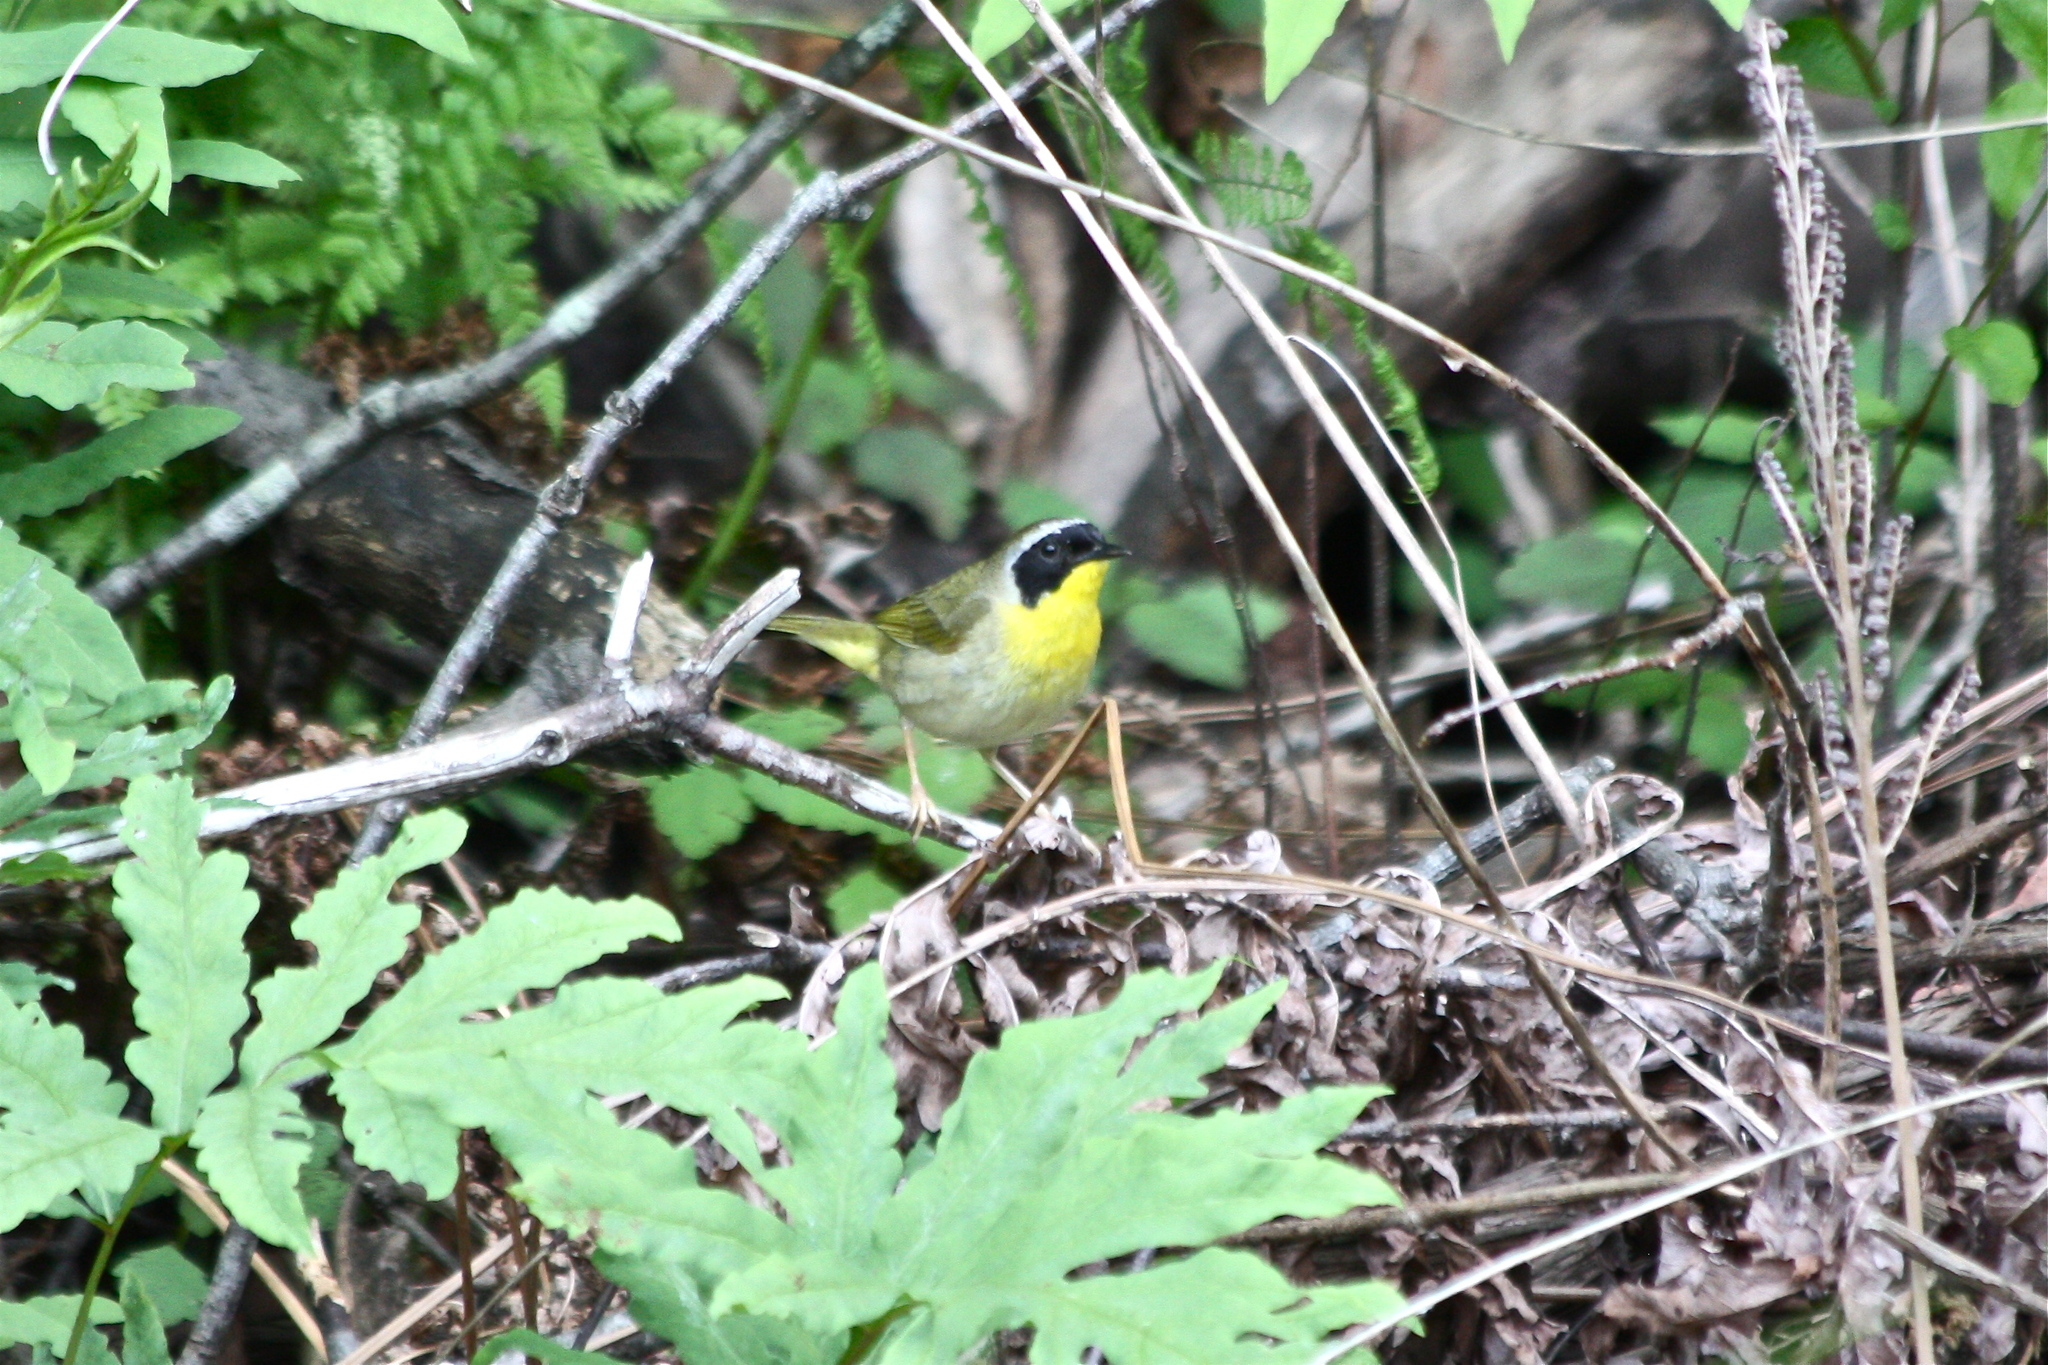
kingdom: Animalia
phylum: Chordata
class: Aves
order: Passeriformes
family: Parulidae
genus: Geothlypis
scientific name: Geothlypis trichas
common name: Common yellowthroat
